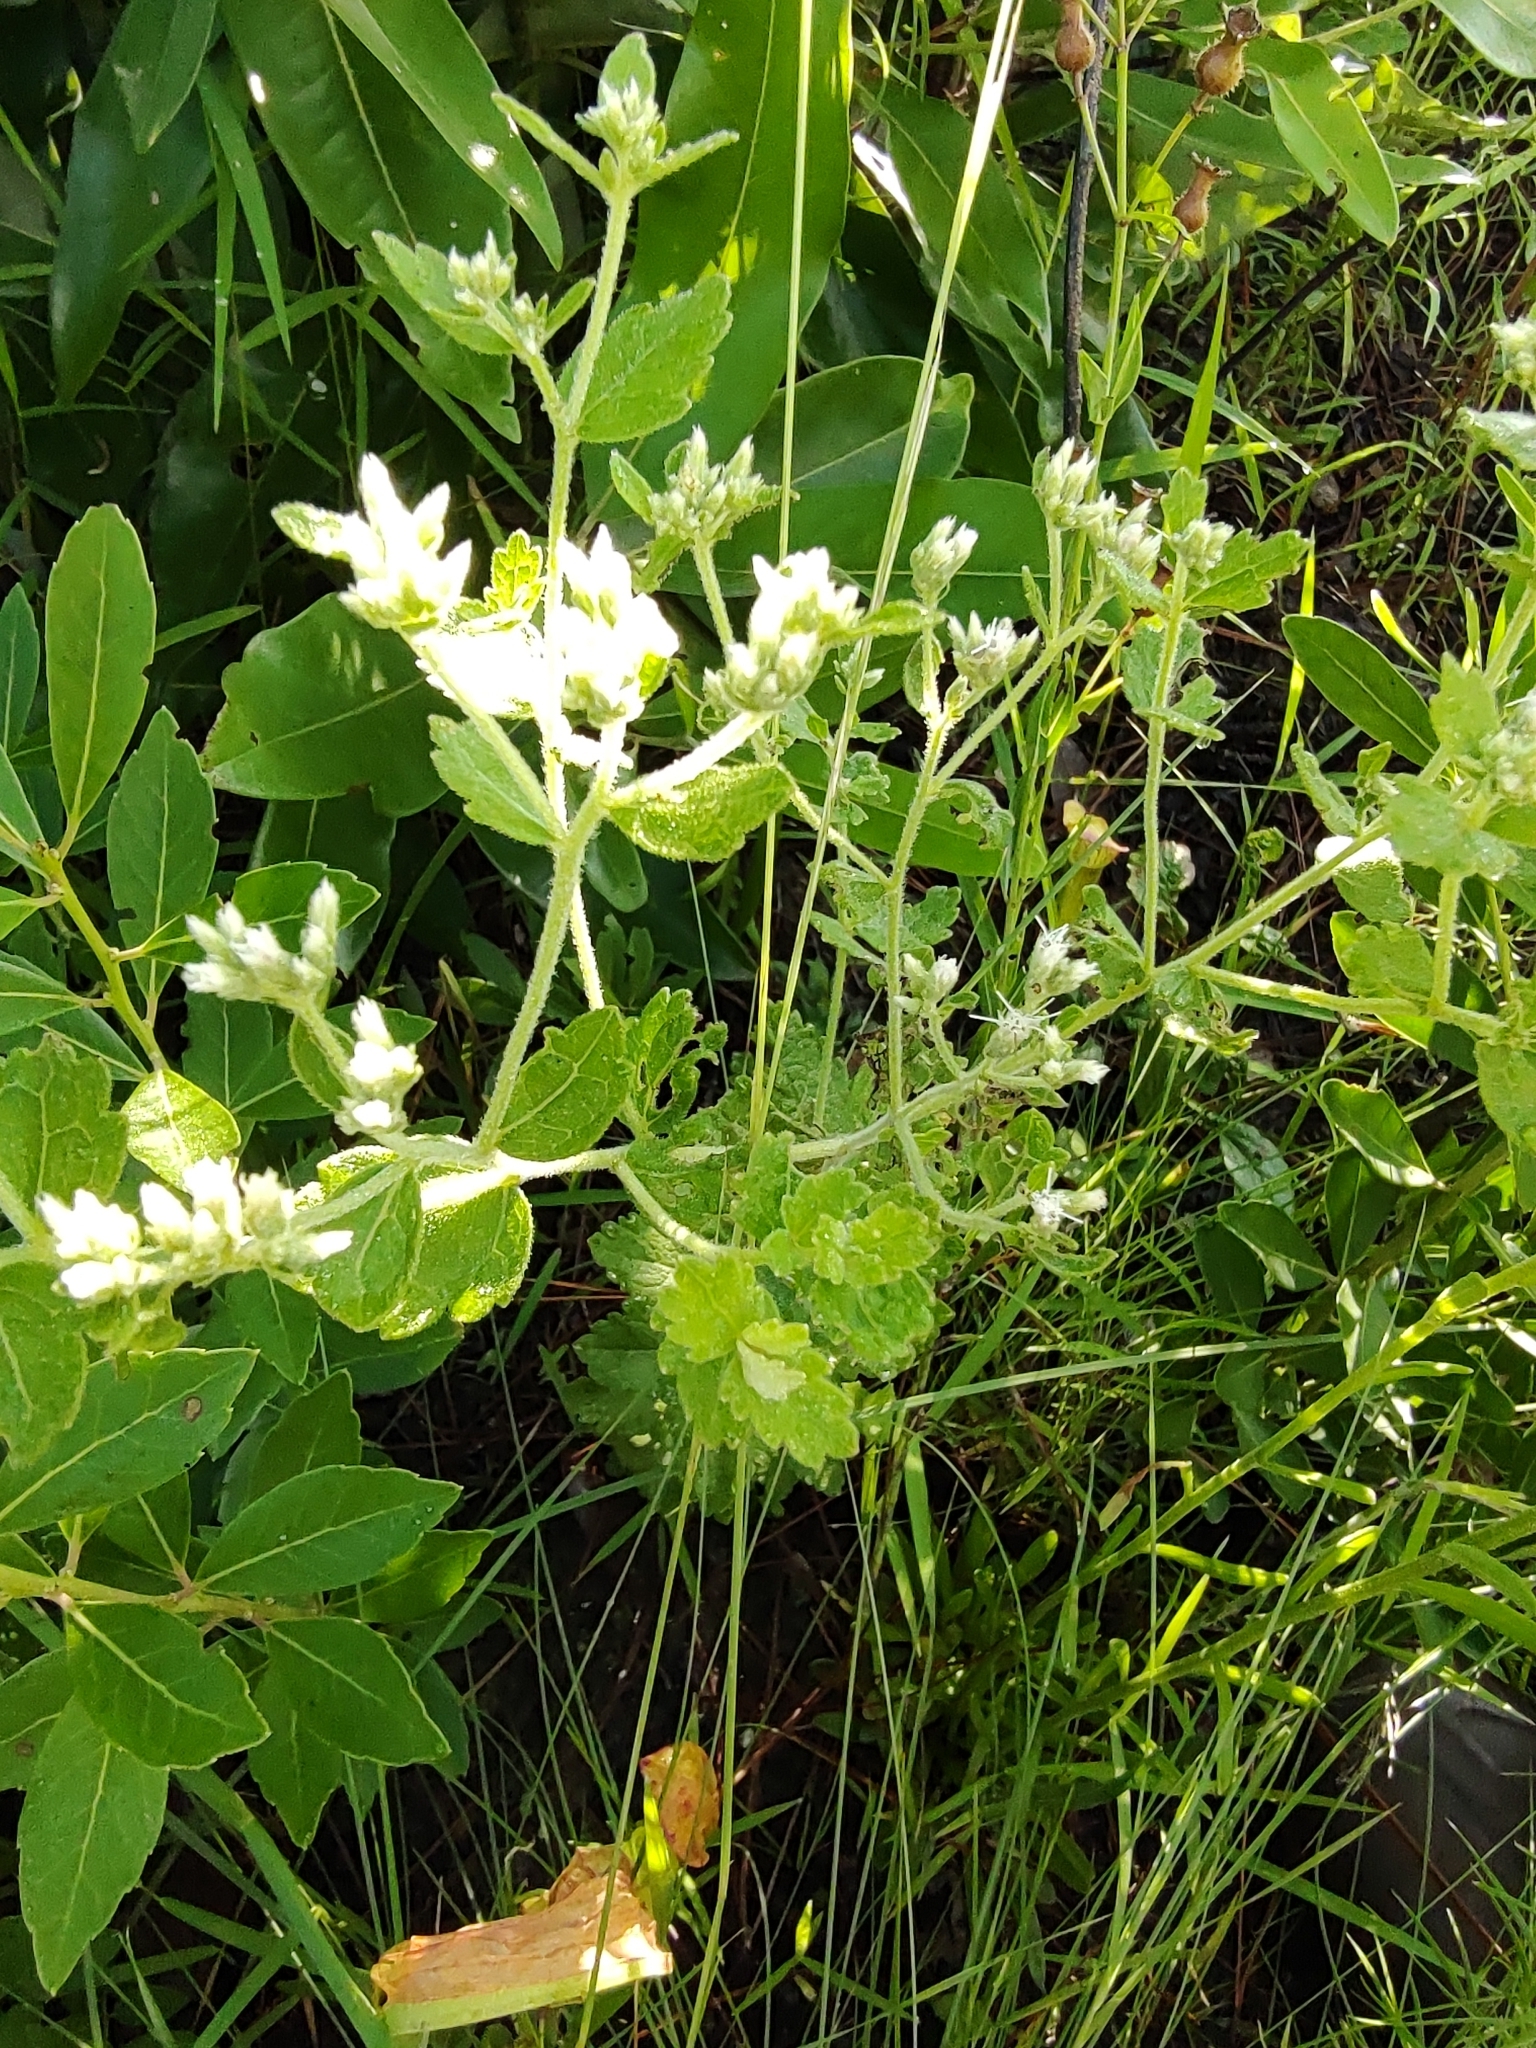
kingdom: Plantae
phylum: Tracheophyta
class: Magnoliopsida
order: Asterales
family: Asteraceae
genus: Eupatorium
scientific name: Eupatorium rotundifolium
